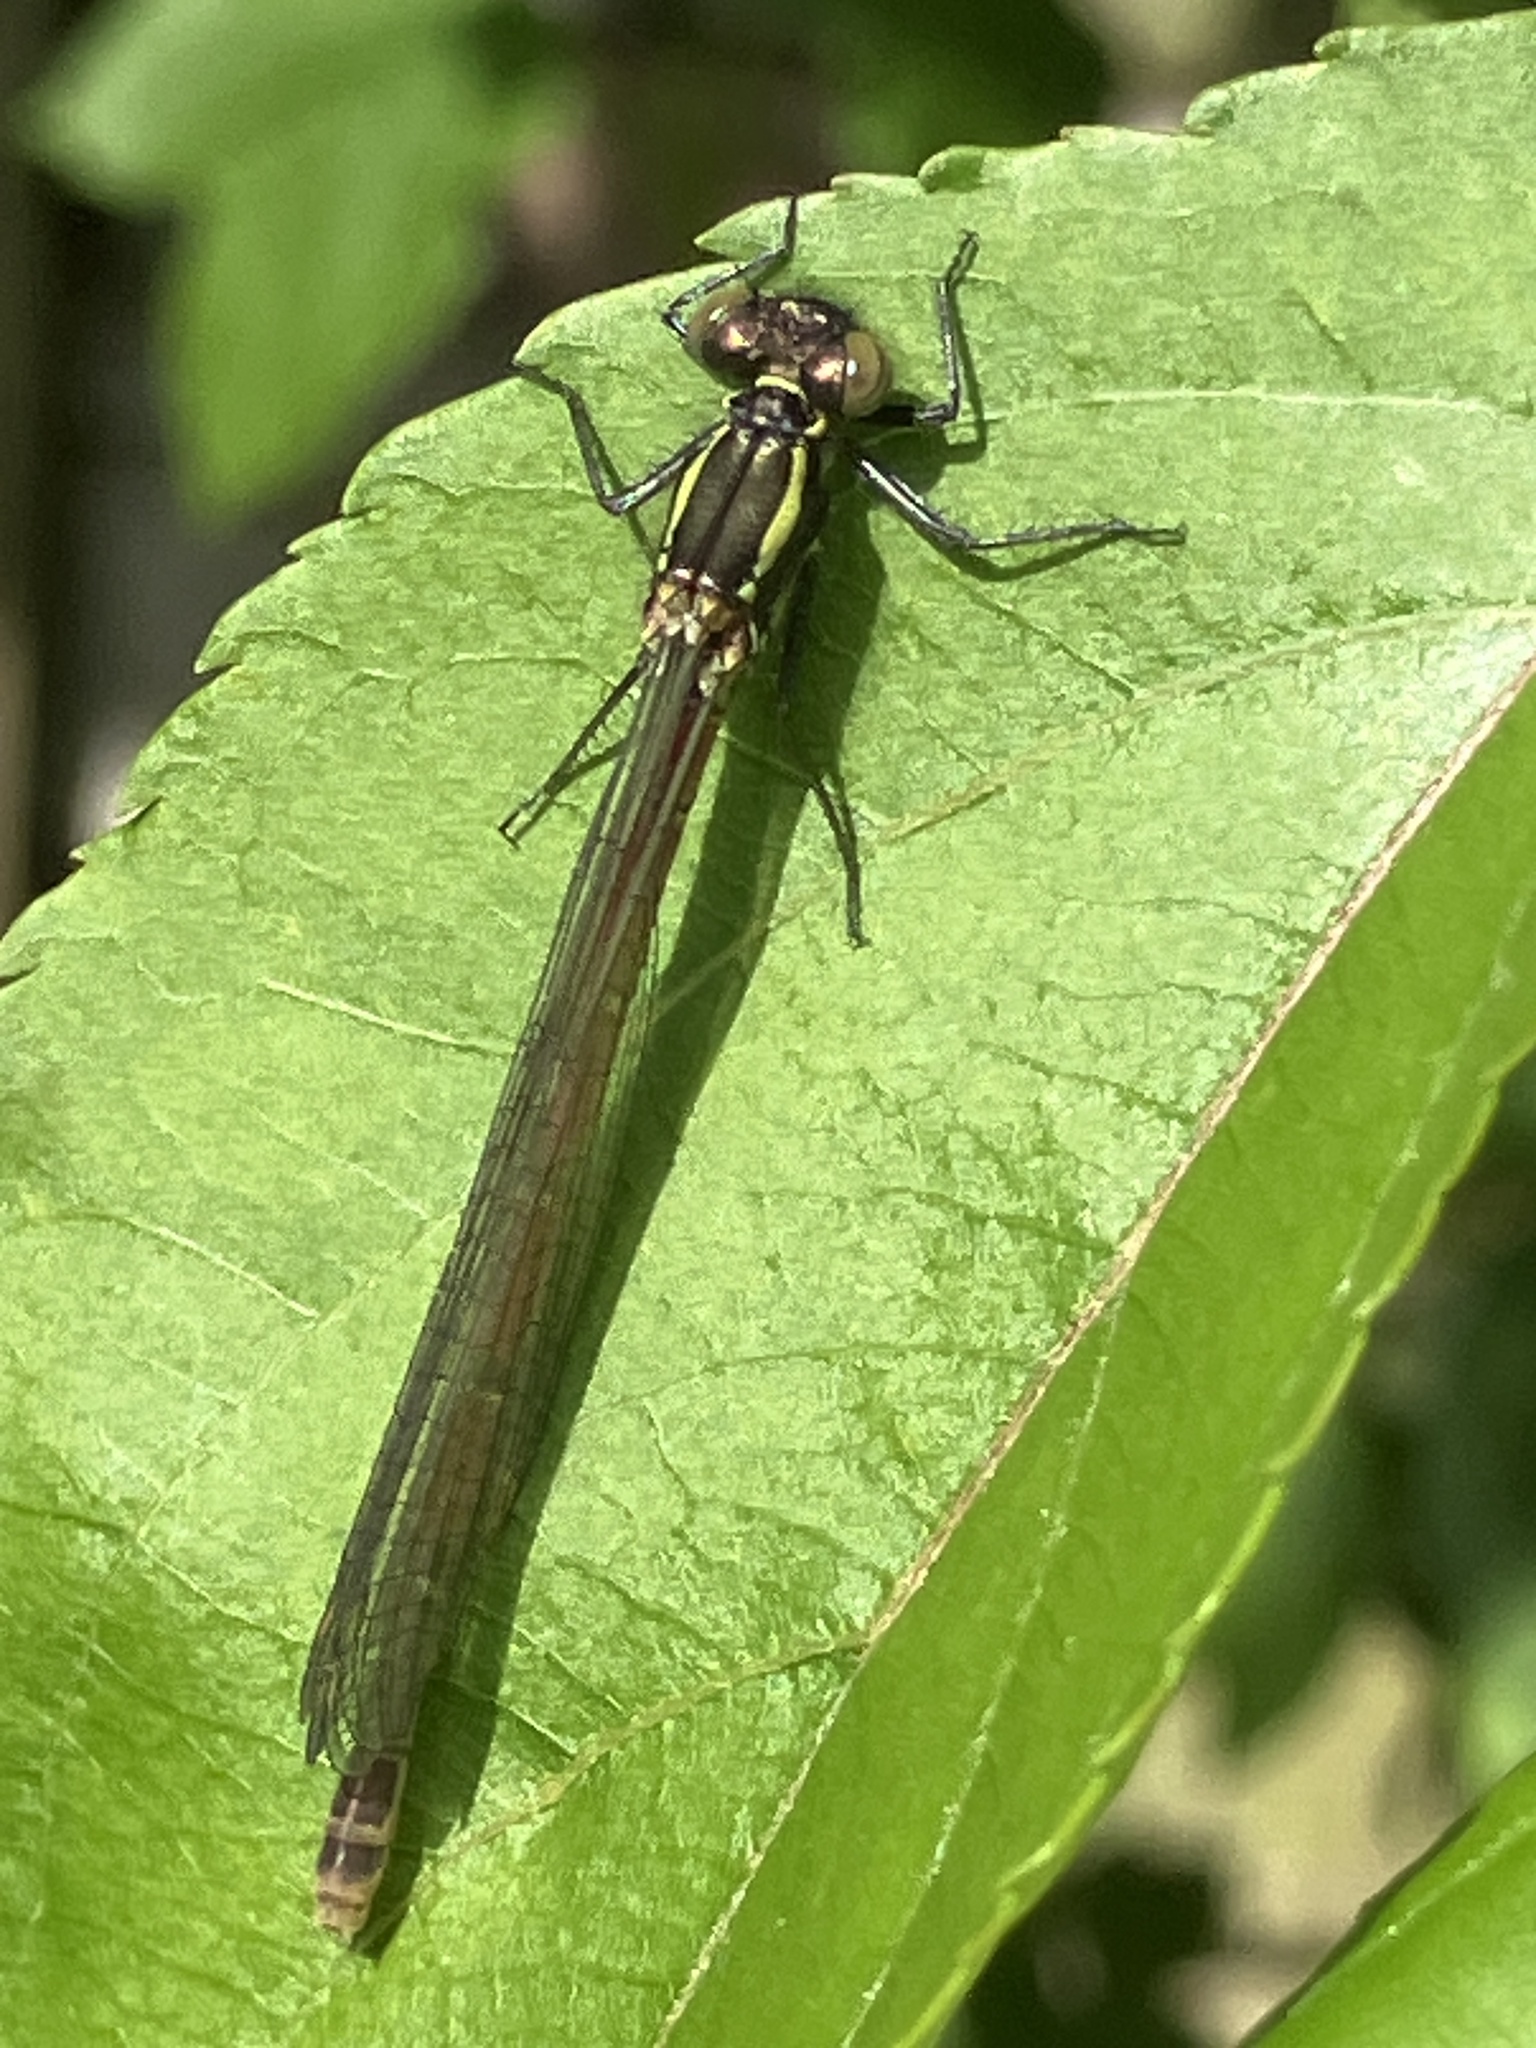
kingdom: Animalia
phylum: Arthropoda
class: Insecta
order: Odonata
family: Coenagrionidae
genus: Pyrrhosoma
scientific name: Pyrrhosoma nymphula
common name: Large red damsel
